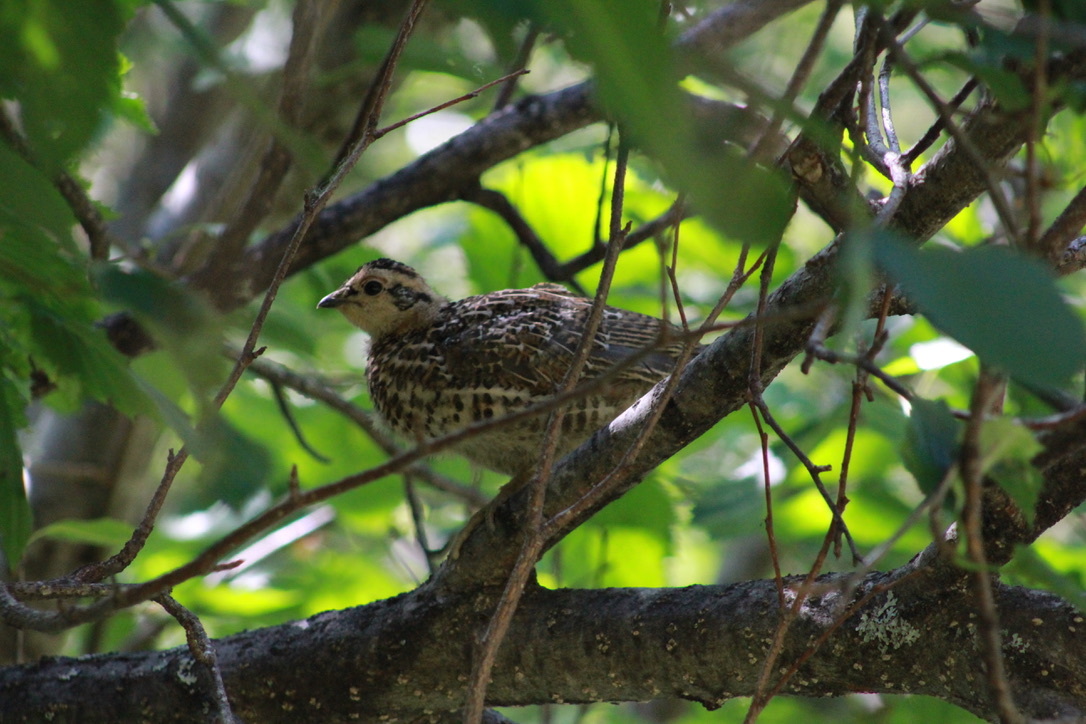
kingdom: Animalia
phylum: Chordata
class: Aves
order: Galliformes
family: Phasianidae
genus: Canachites
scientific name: Canachites canadensis
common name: Spruce grouse
